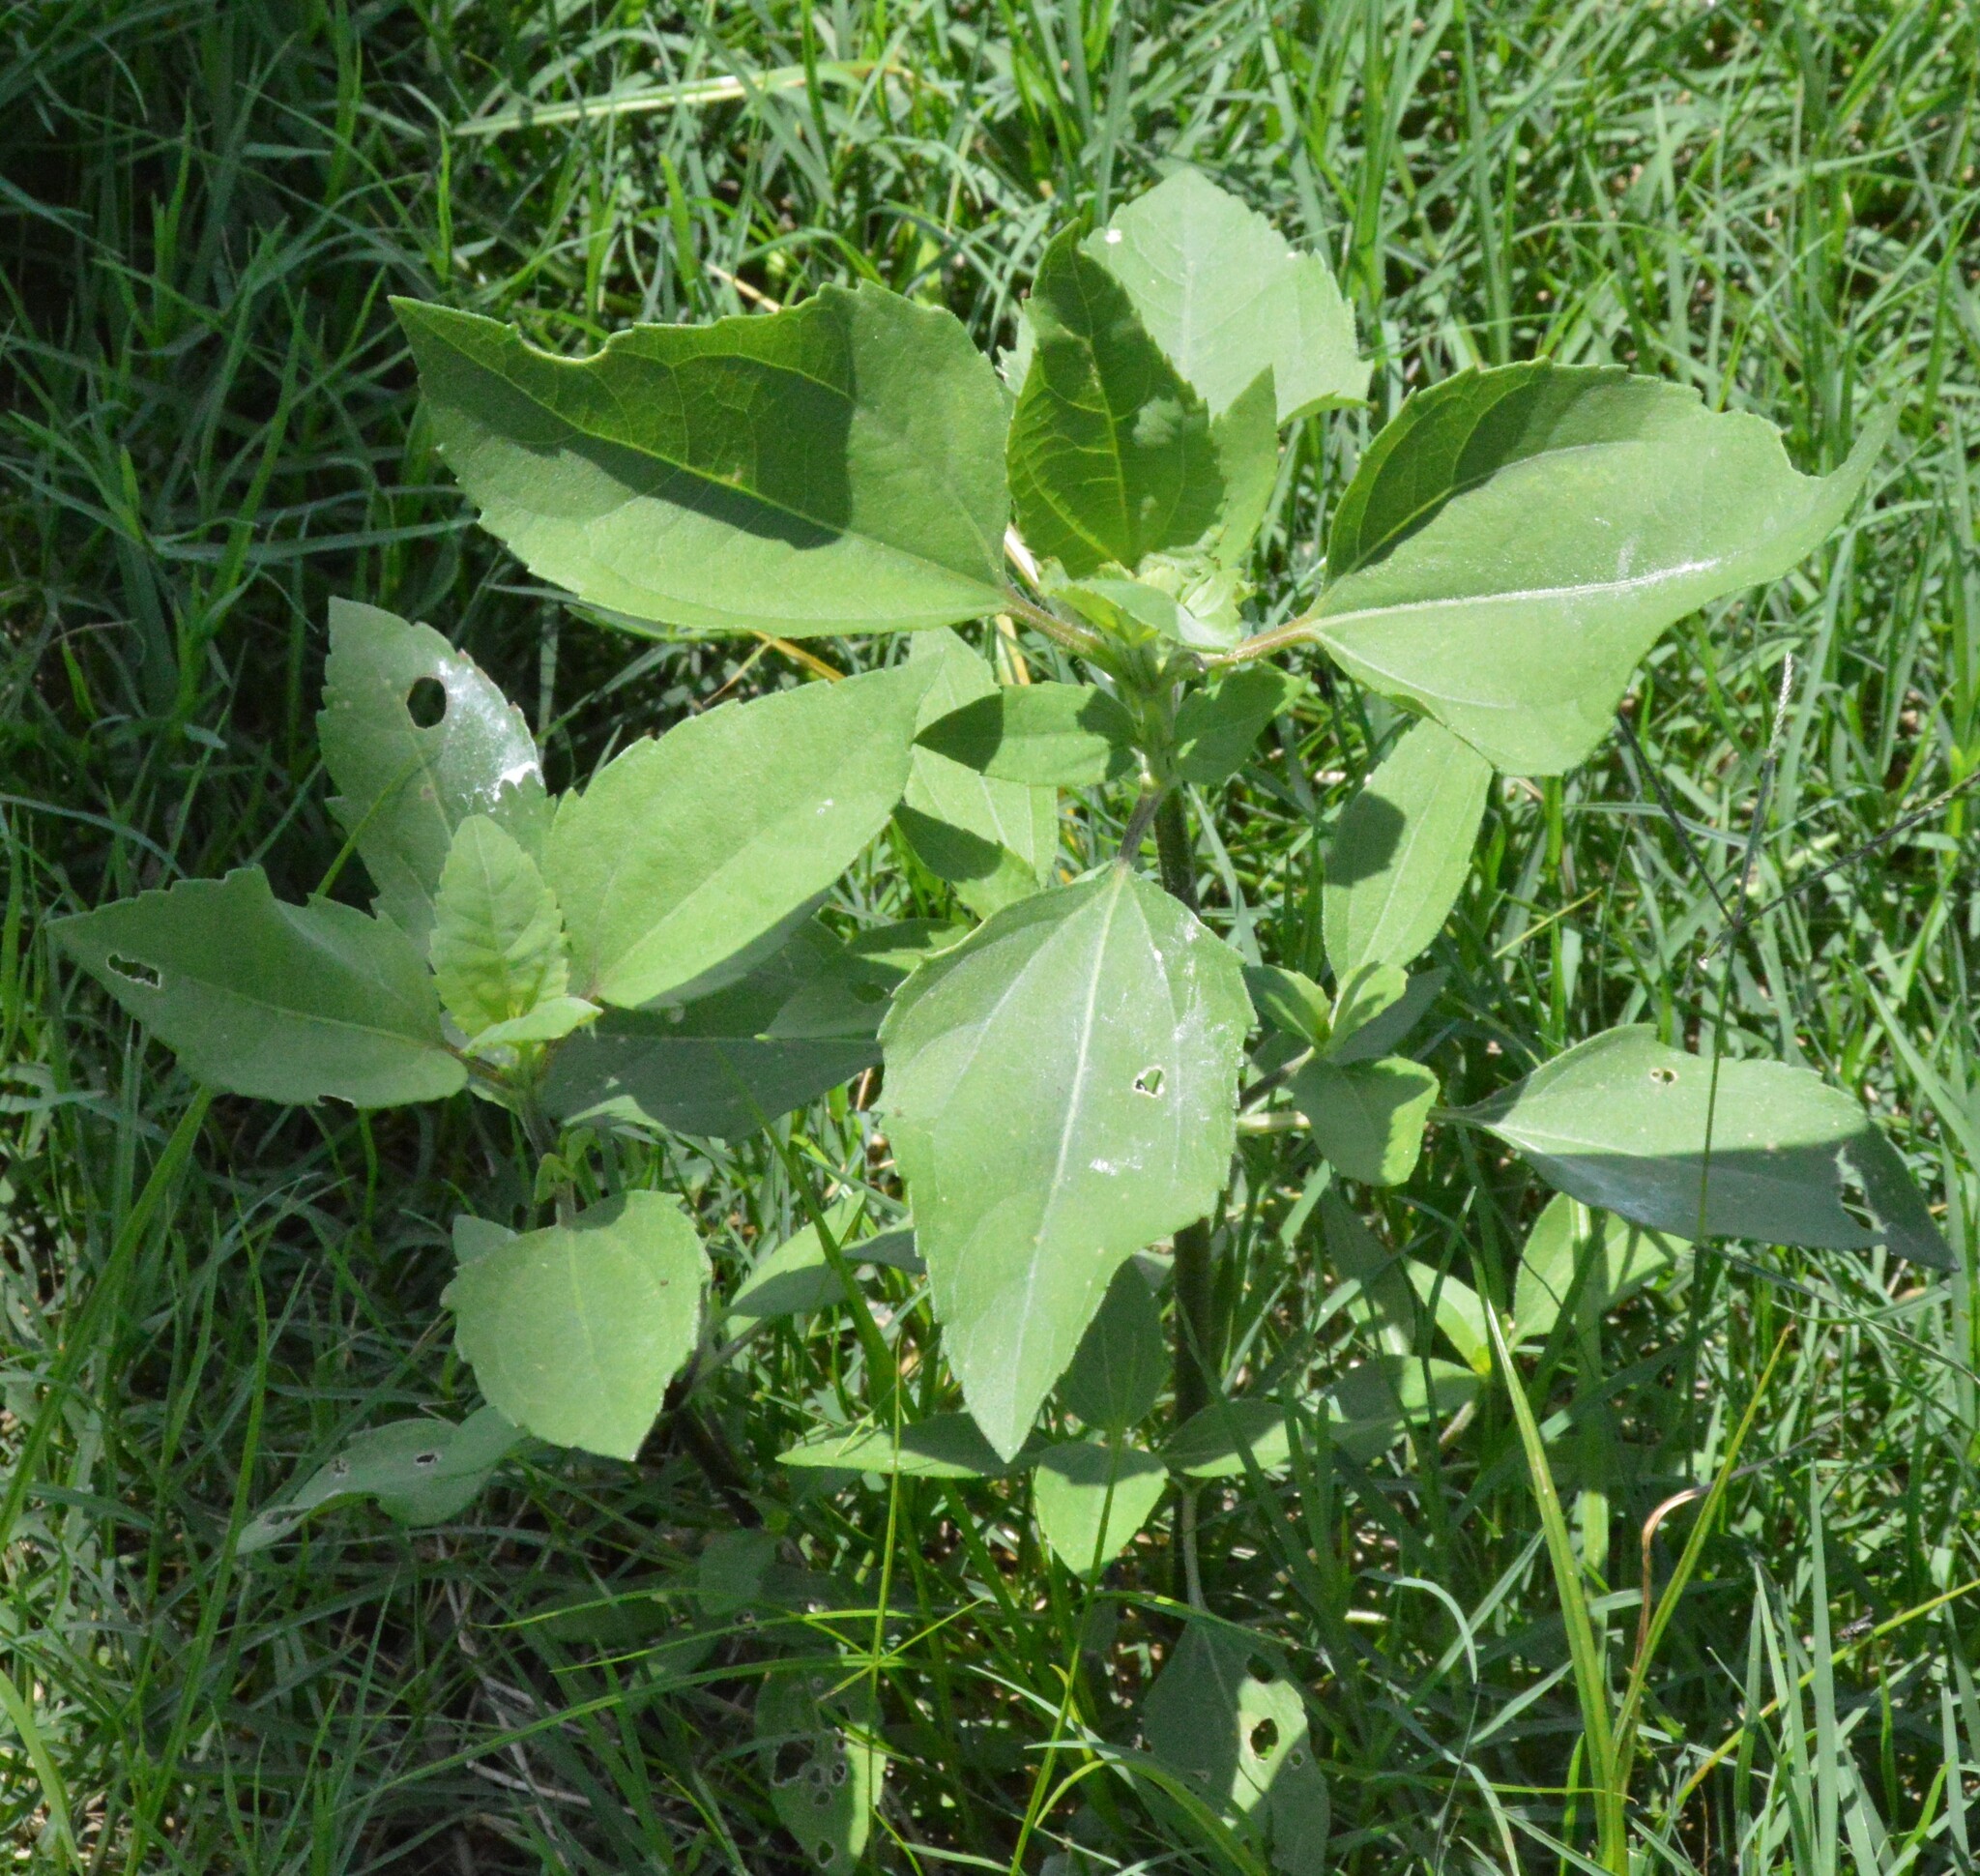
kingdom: Plantae
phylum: Tracheophyta
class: Liliopsida
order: Poales
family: Poaceae
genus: Dichanthelium
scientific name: Dichanthelium scoparium
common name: Velvety panic grass
